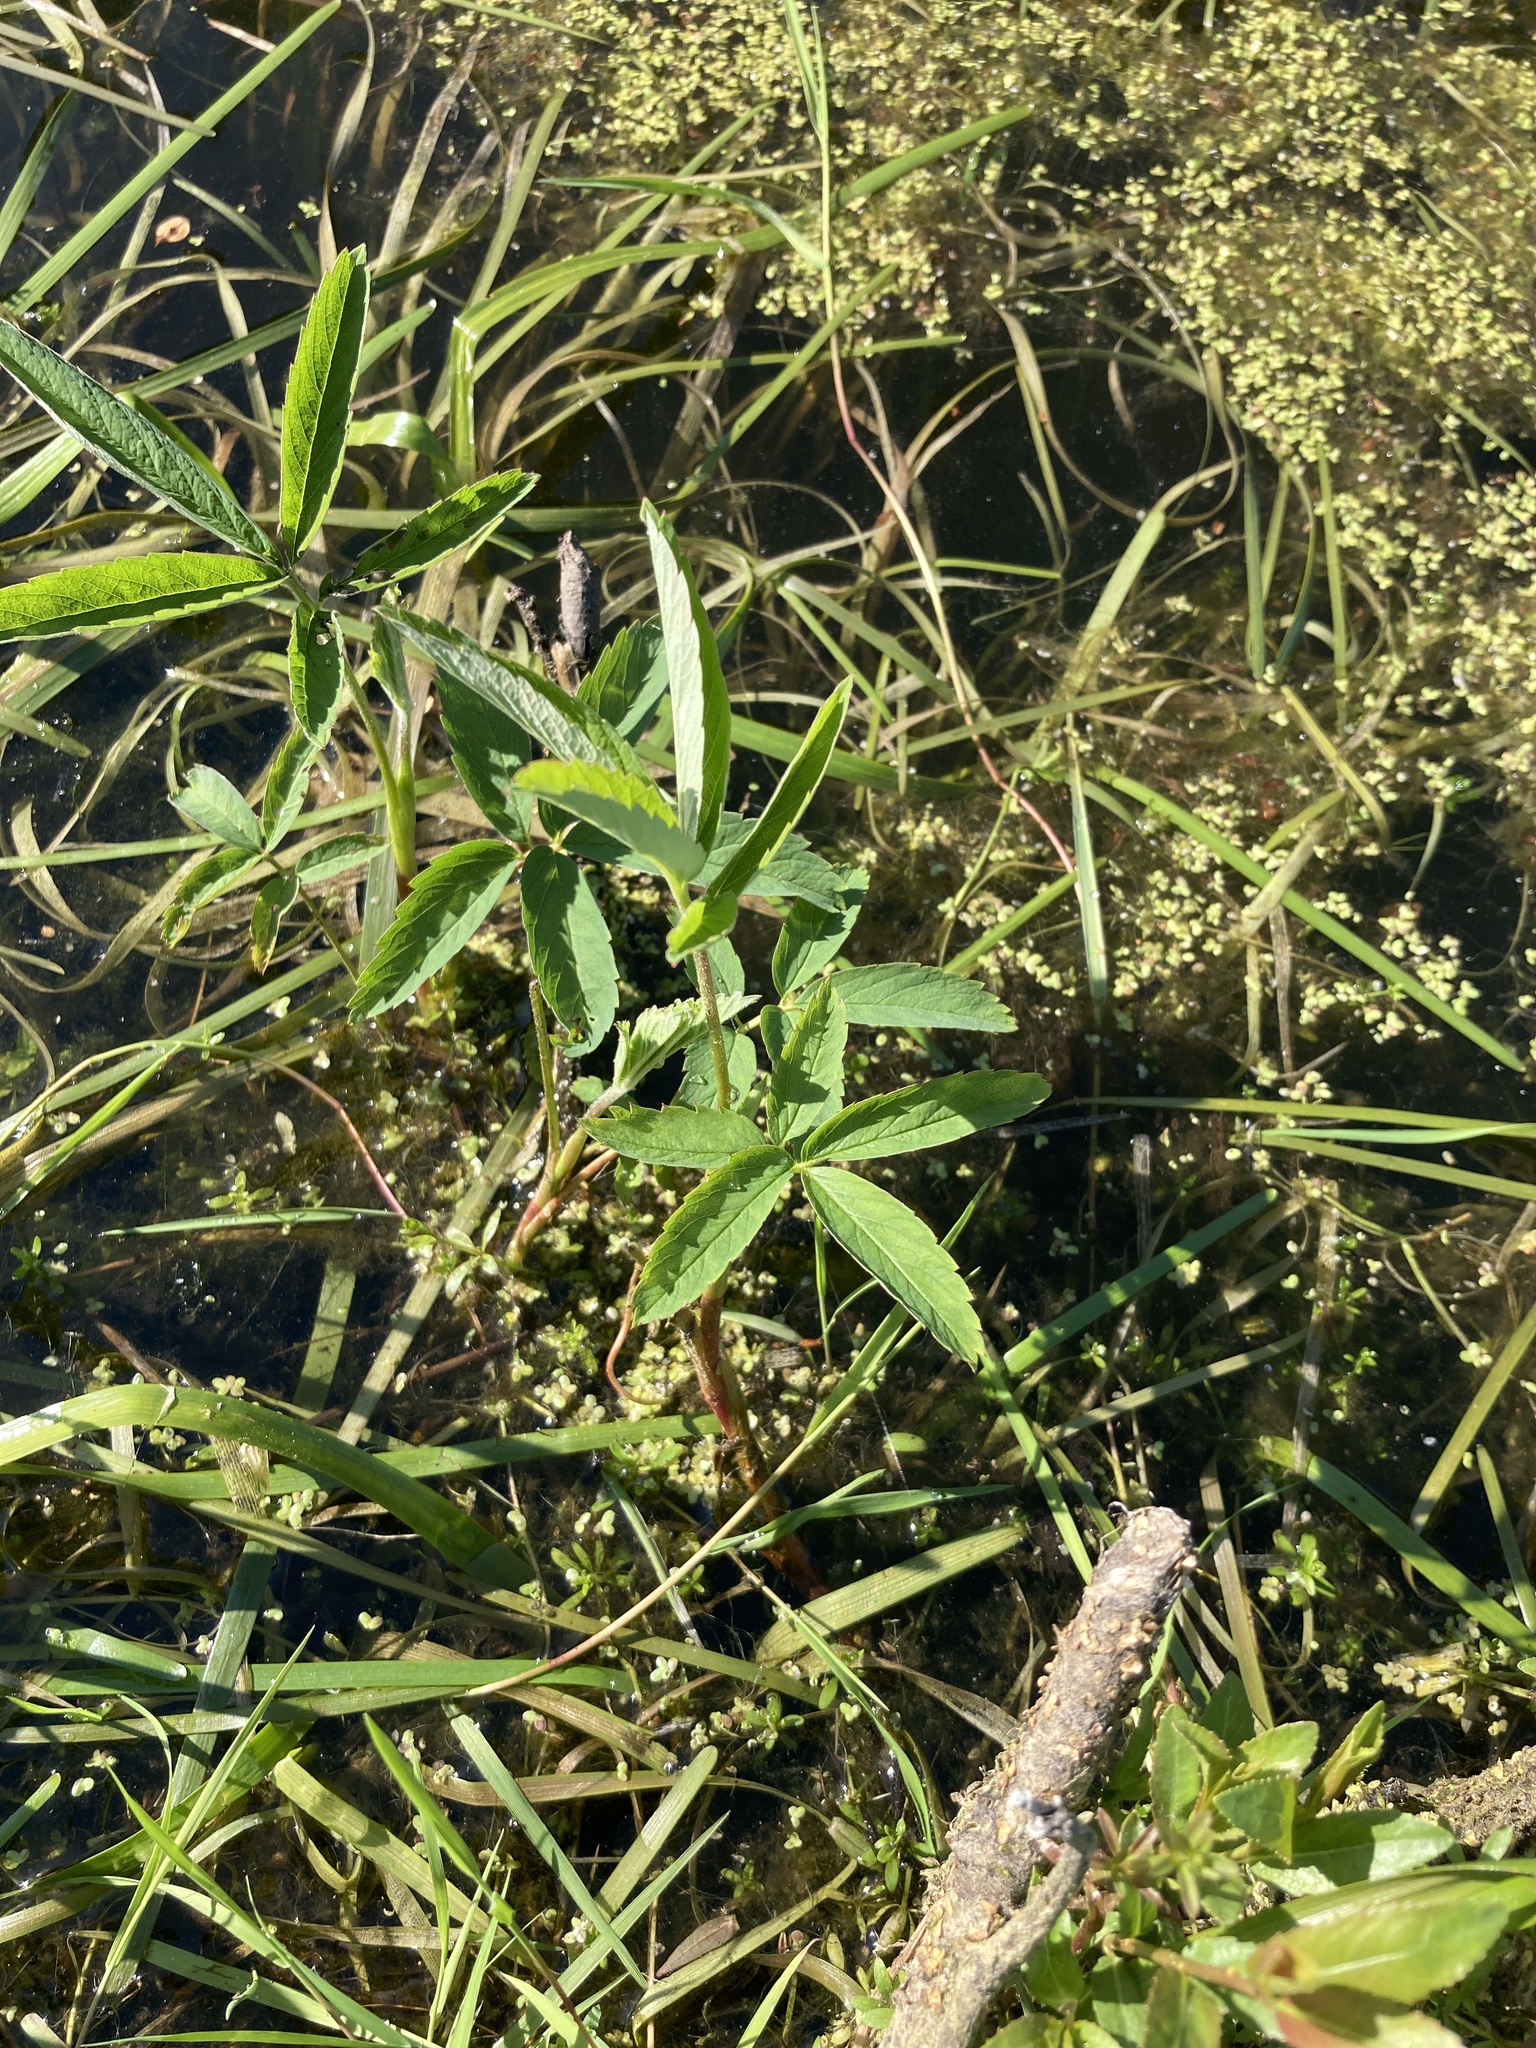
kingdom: Plantae
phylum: Tracheophyta
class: Magnoliopsida
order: Rosales
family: Rosaceae
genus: Comarum
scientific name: Comarum palustre
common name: Marsh cinquefoil
